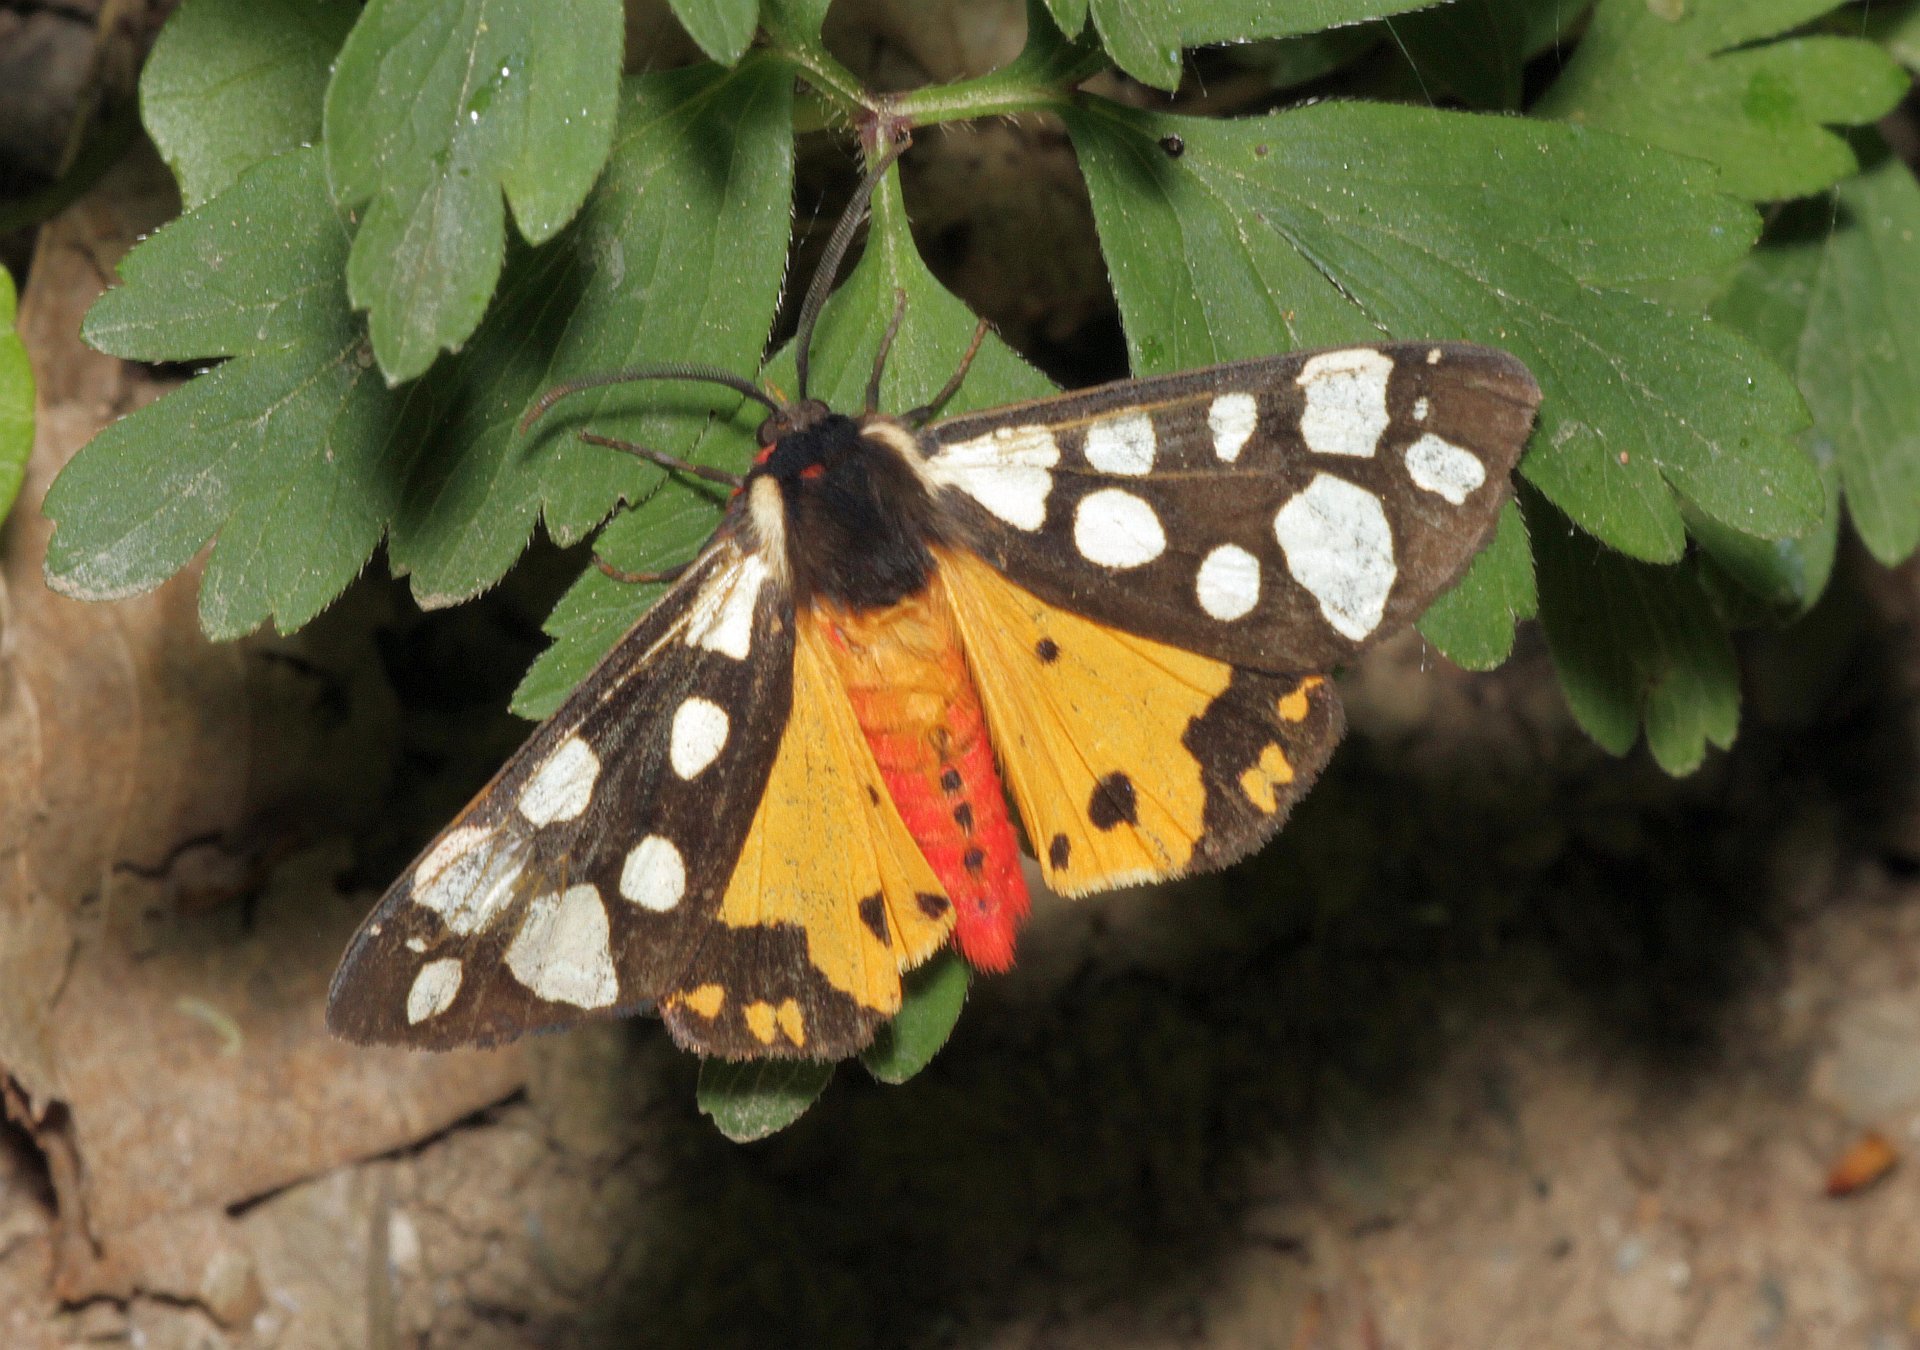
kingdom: Animalia
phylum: Arthropoda
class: Insecta
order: Lepidoptera
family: Erebidae
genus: Epicallia
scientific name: Epicallia villica
